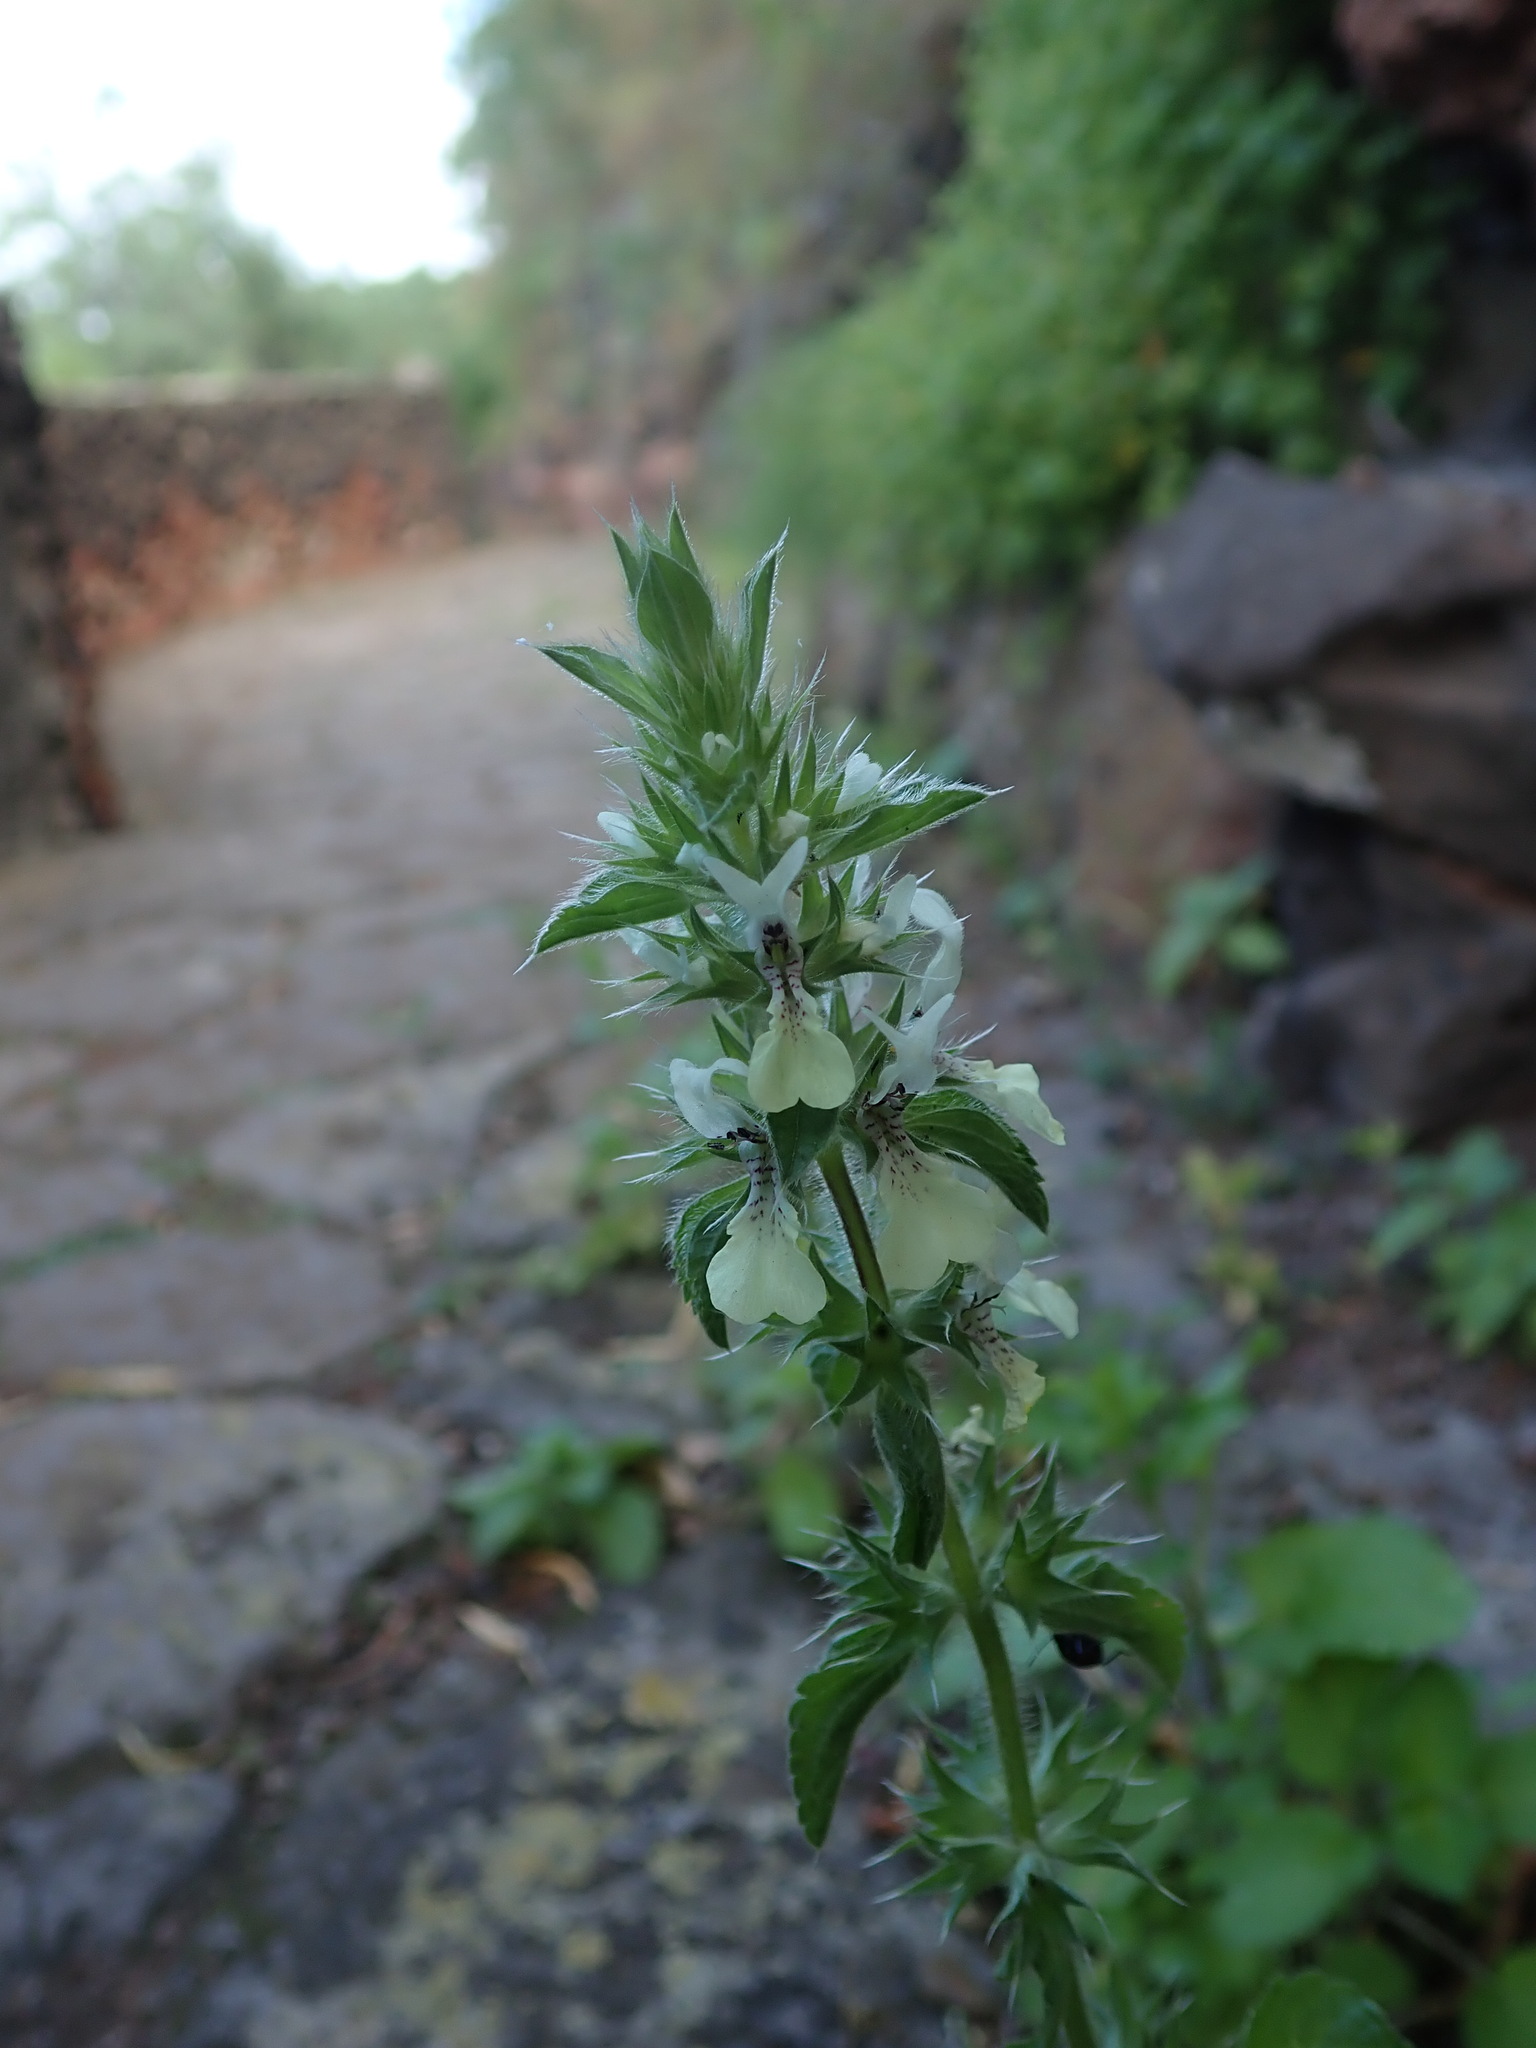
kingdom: Plantae
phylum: Tracheophyta
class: Magnoliopsida
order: Lamiales
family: Lamiaceae
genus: Stachys
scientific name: Stachys ocymastrum
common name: Italian hedgenettle
